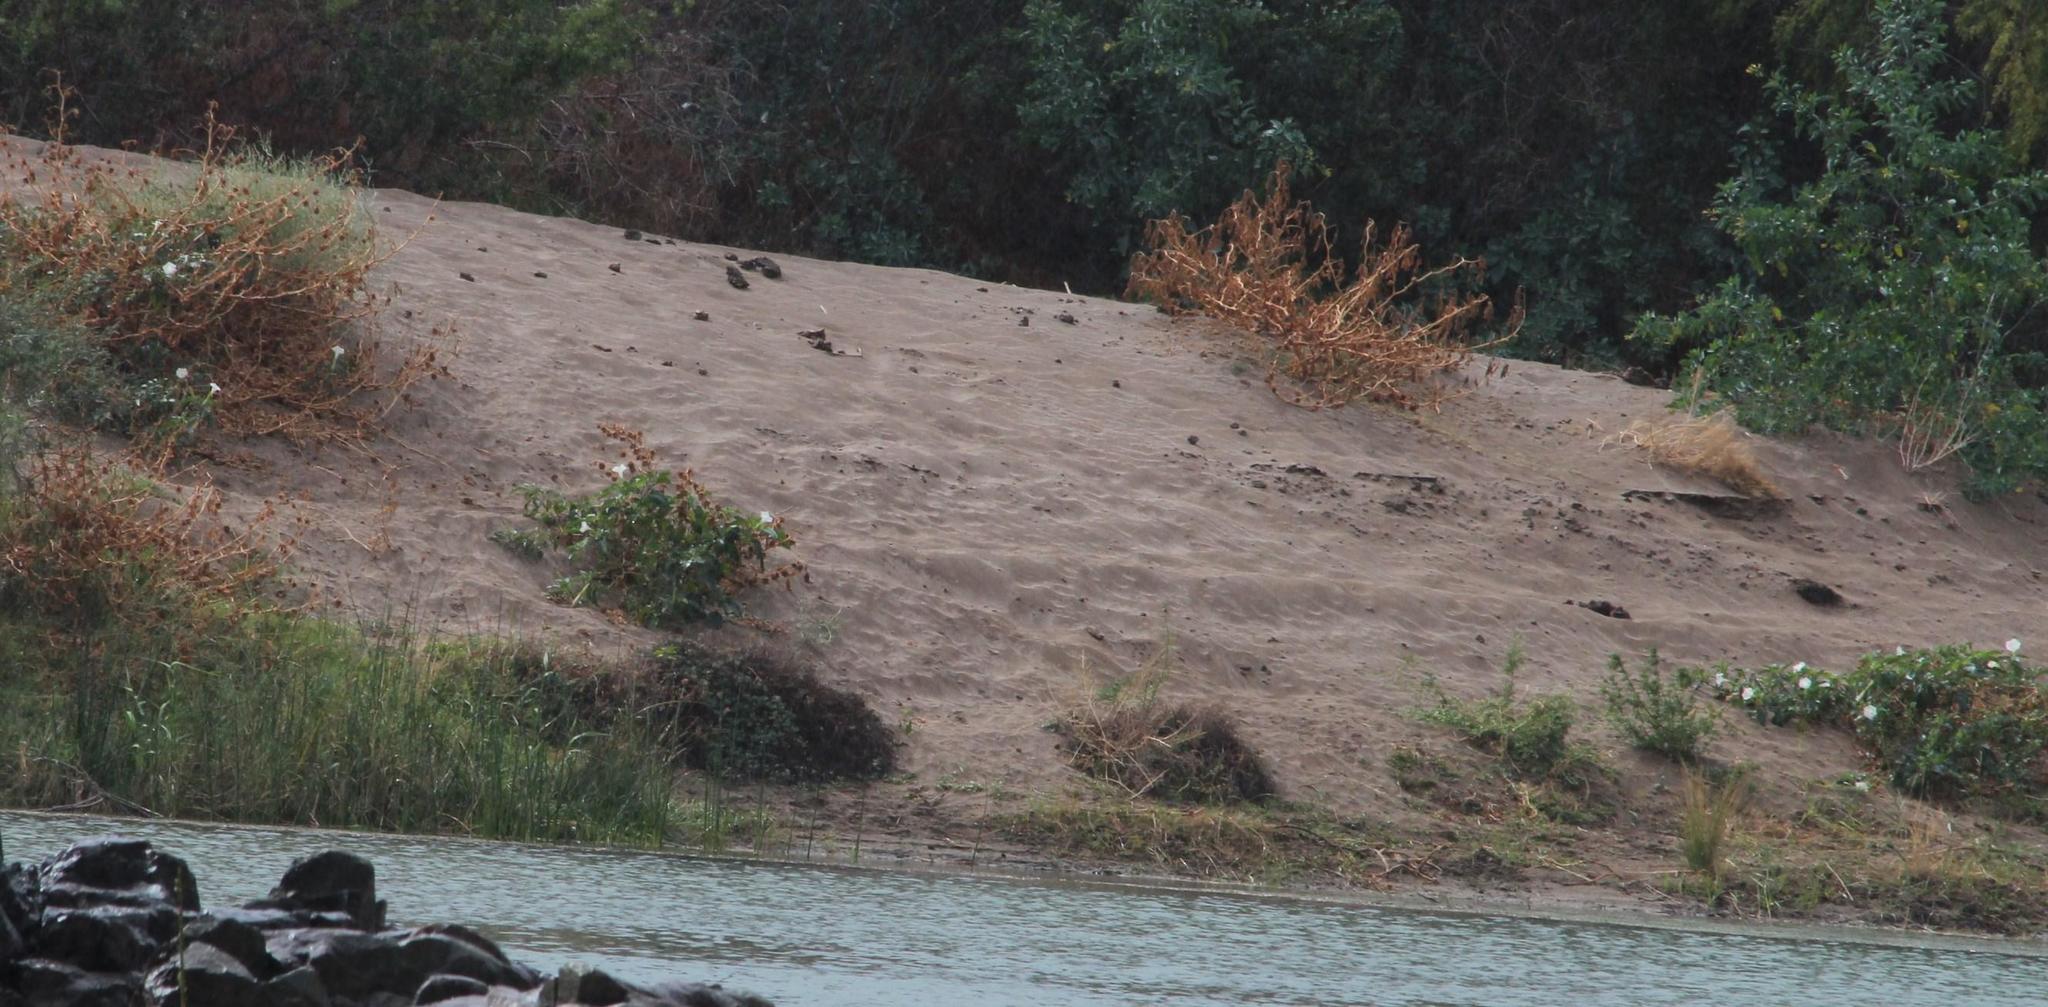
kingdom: Plantae
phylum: Tracheophyta
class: Magnoliopsida
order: Solanales
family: Solanaceae
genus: Datura
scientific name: Datura innoxia
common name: Downy thorn-apple
